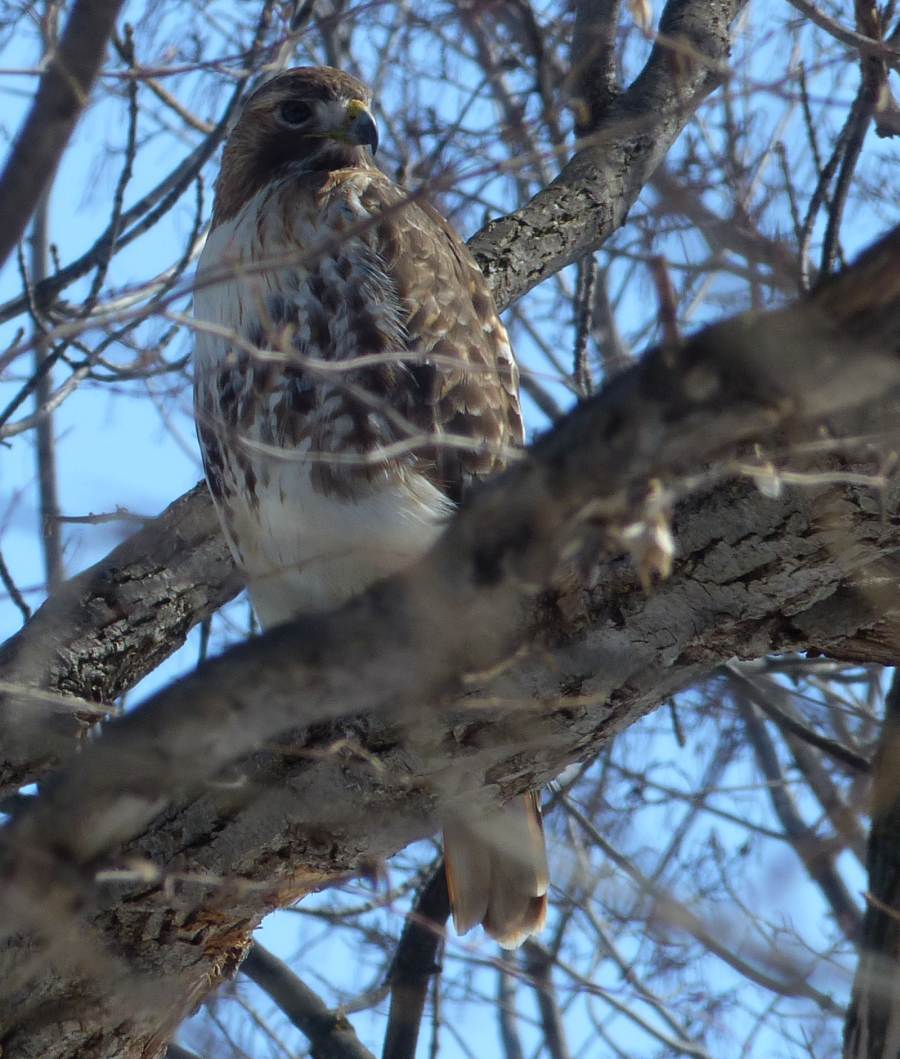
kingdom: Animalia
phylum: Chordata
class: Aves
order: Accipitriformes
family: Accipitridae
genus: Buteo
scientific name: Buteo jamaicensis
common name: Red-tailed hawk
